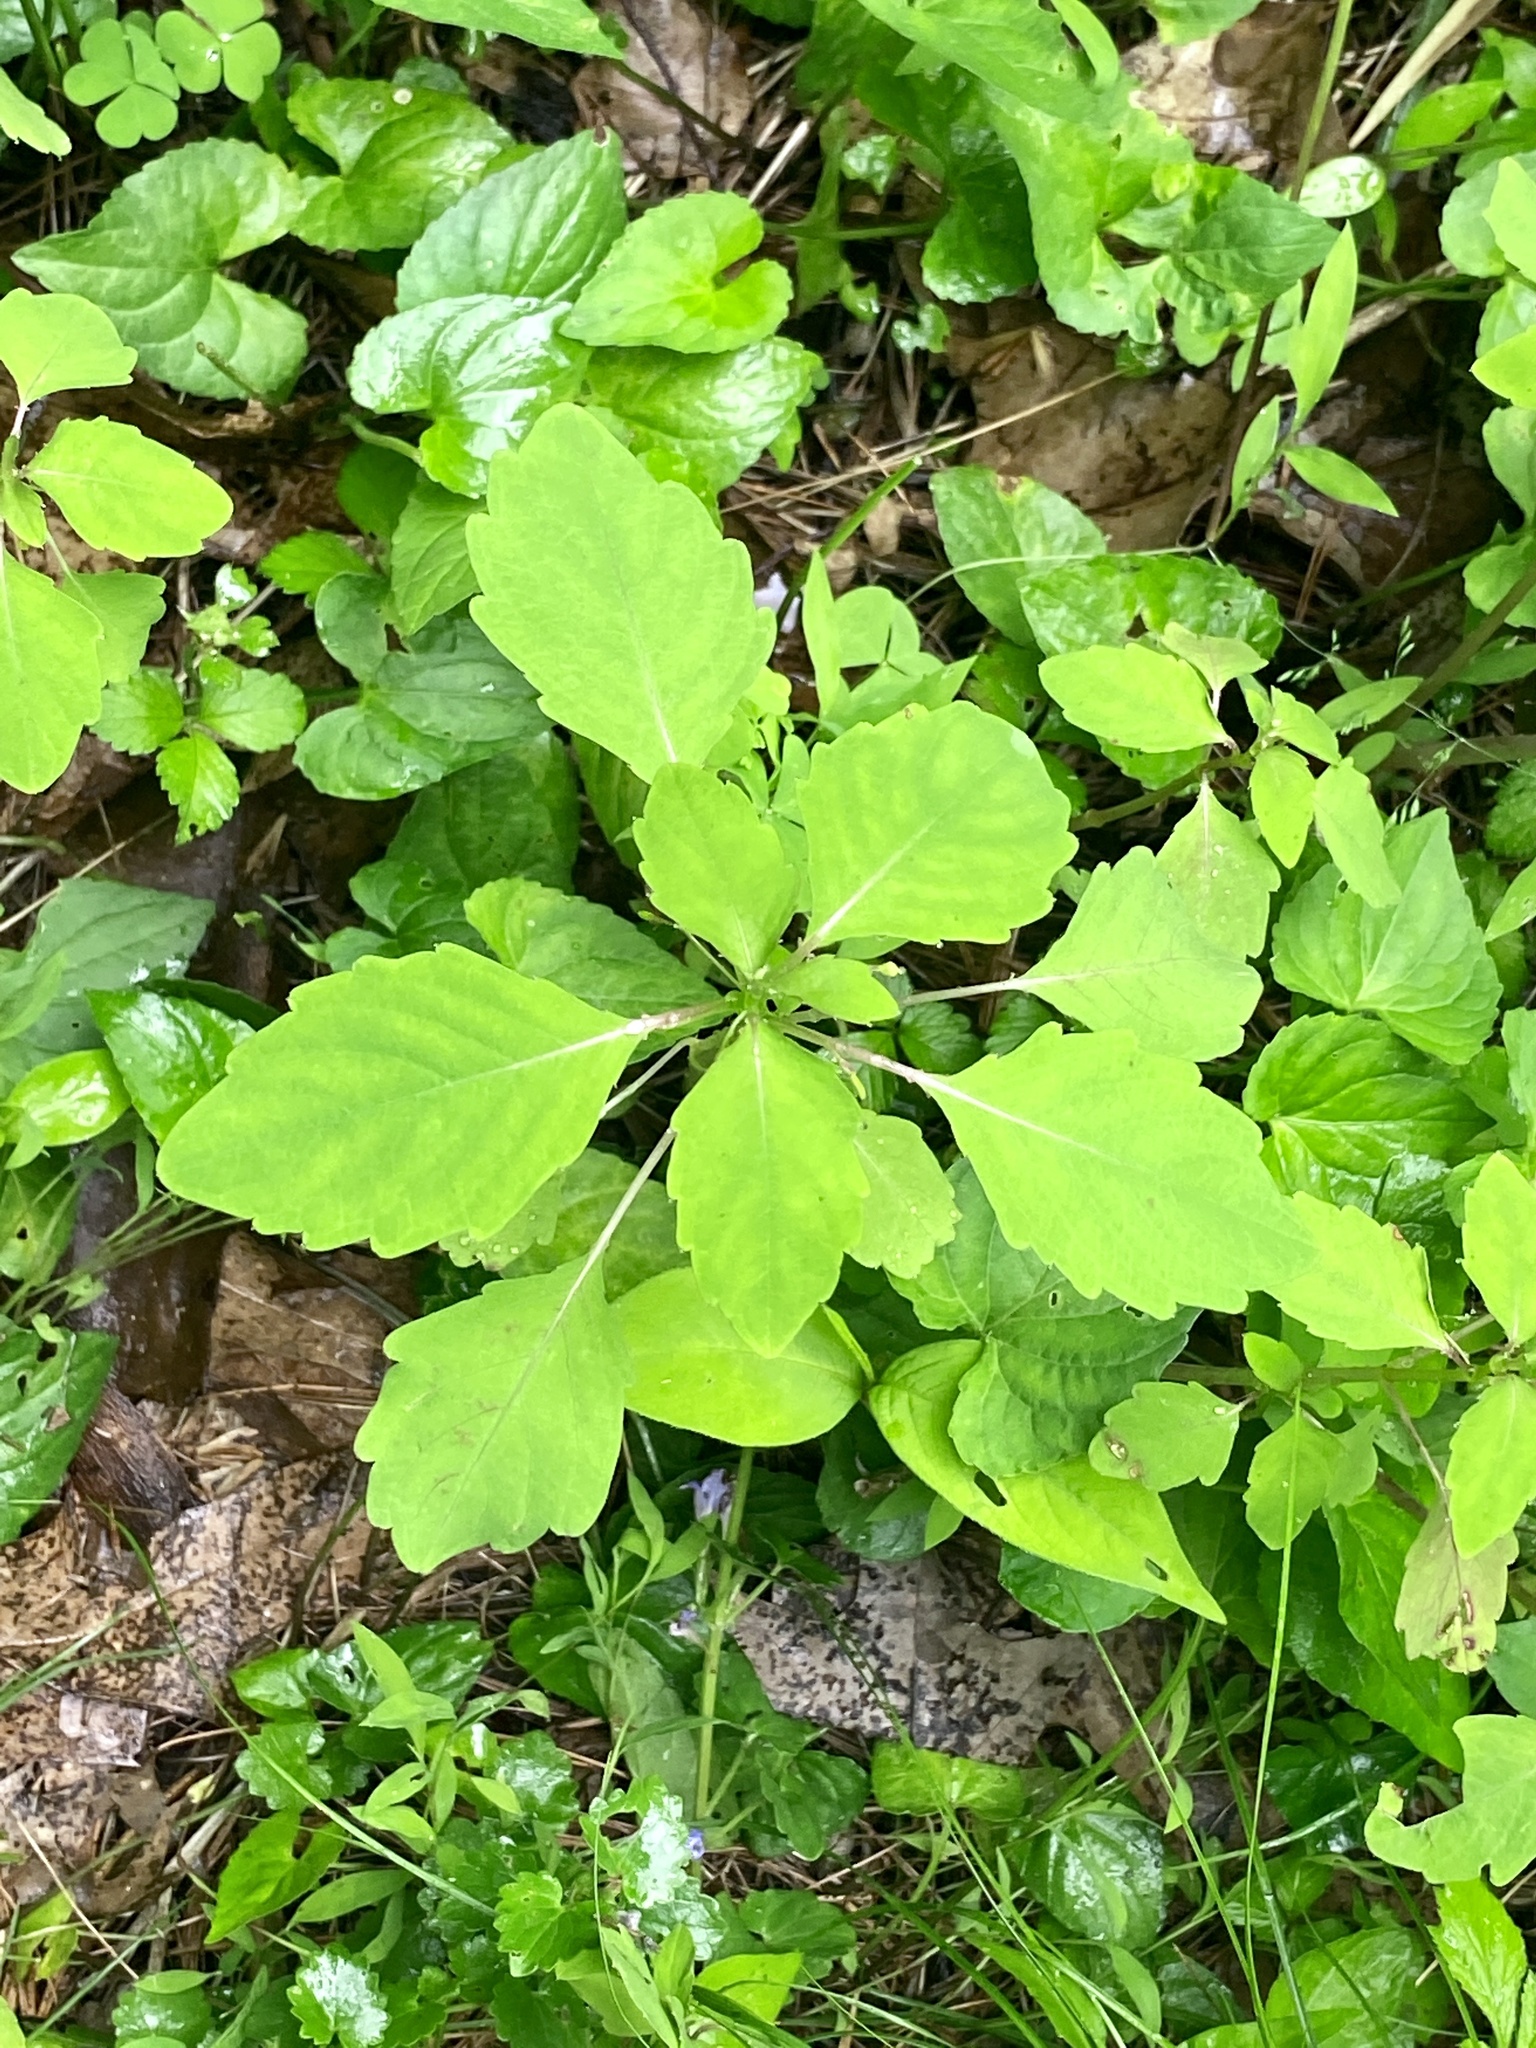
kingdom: Plantae
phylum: Tracheophyta
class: Magnoliopsida
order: Ericales
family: Balsaminaceae
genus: Impatiens
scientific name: Impatiens capensis
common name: Orange balsam
